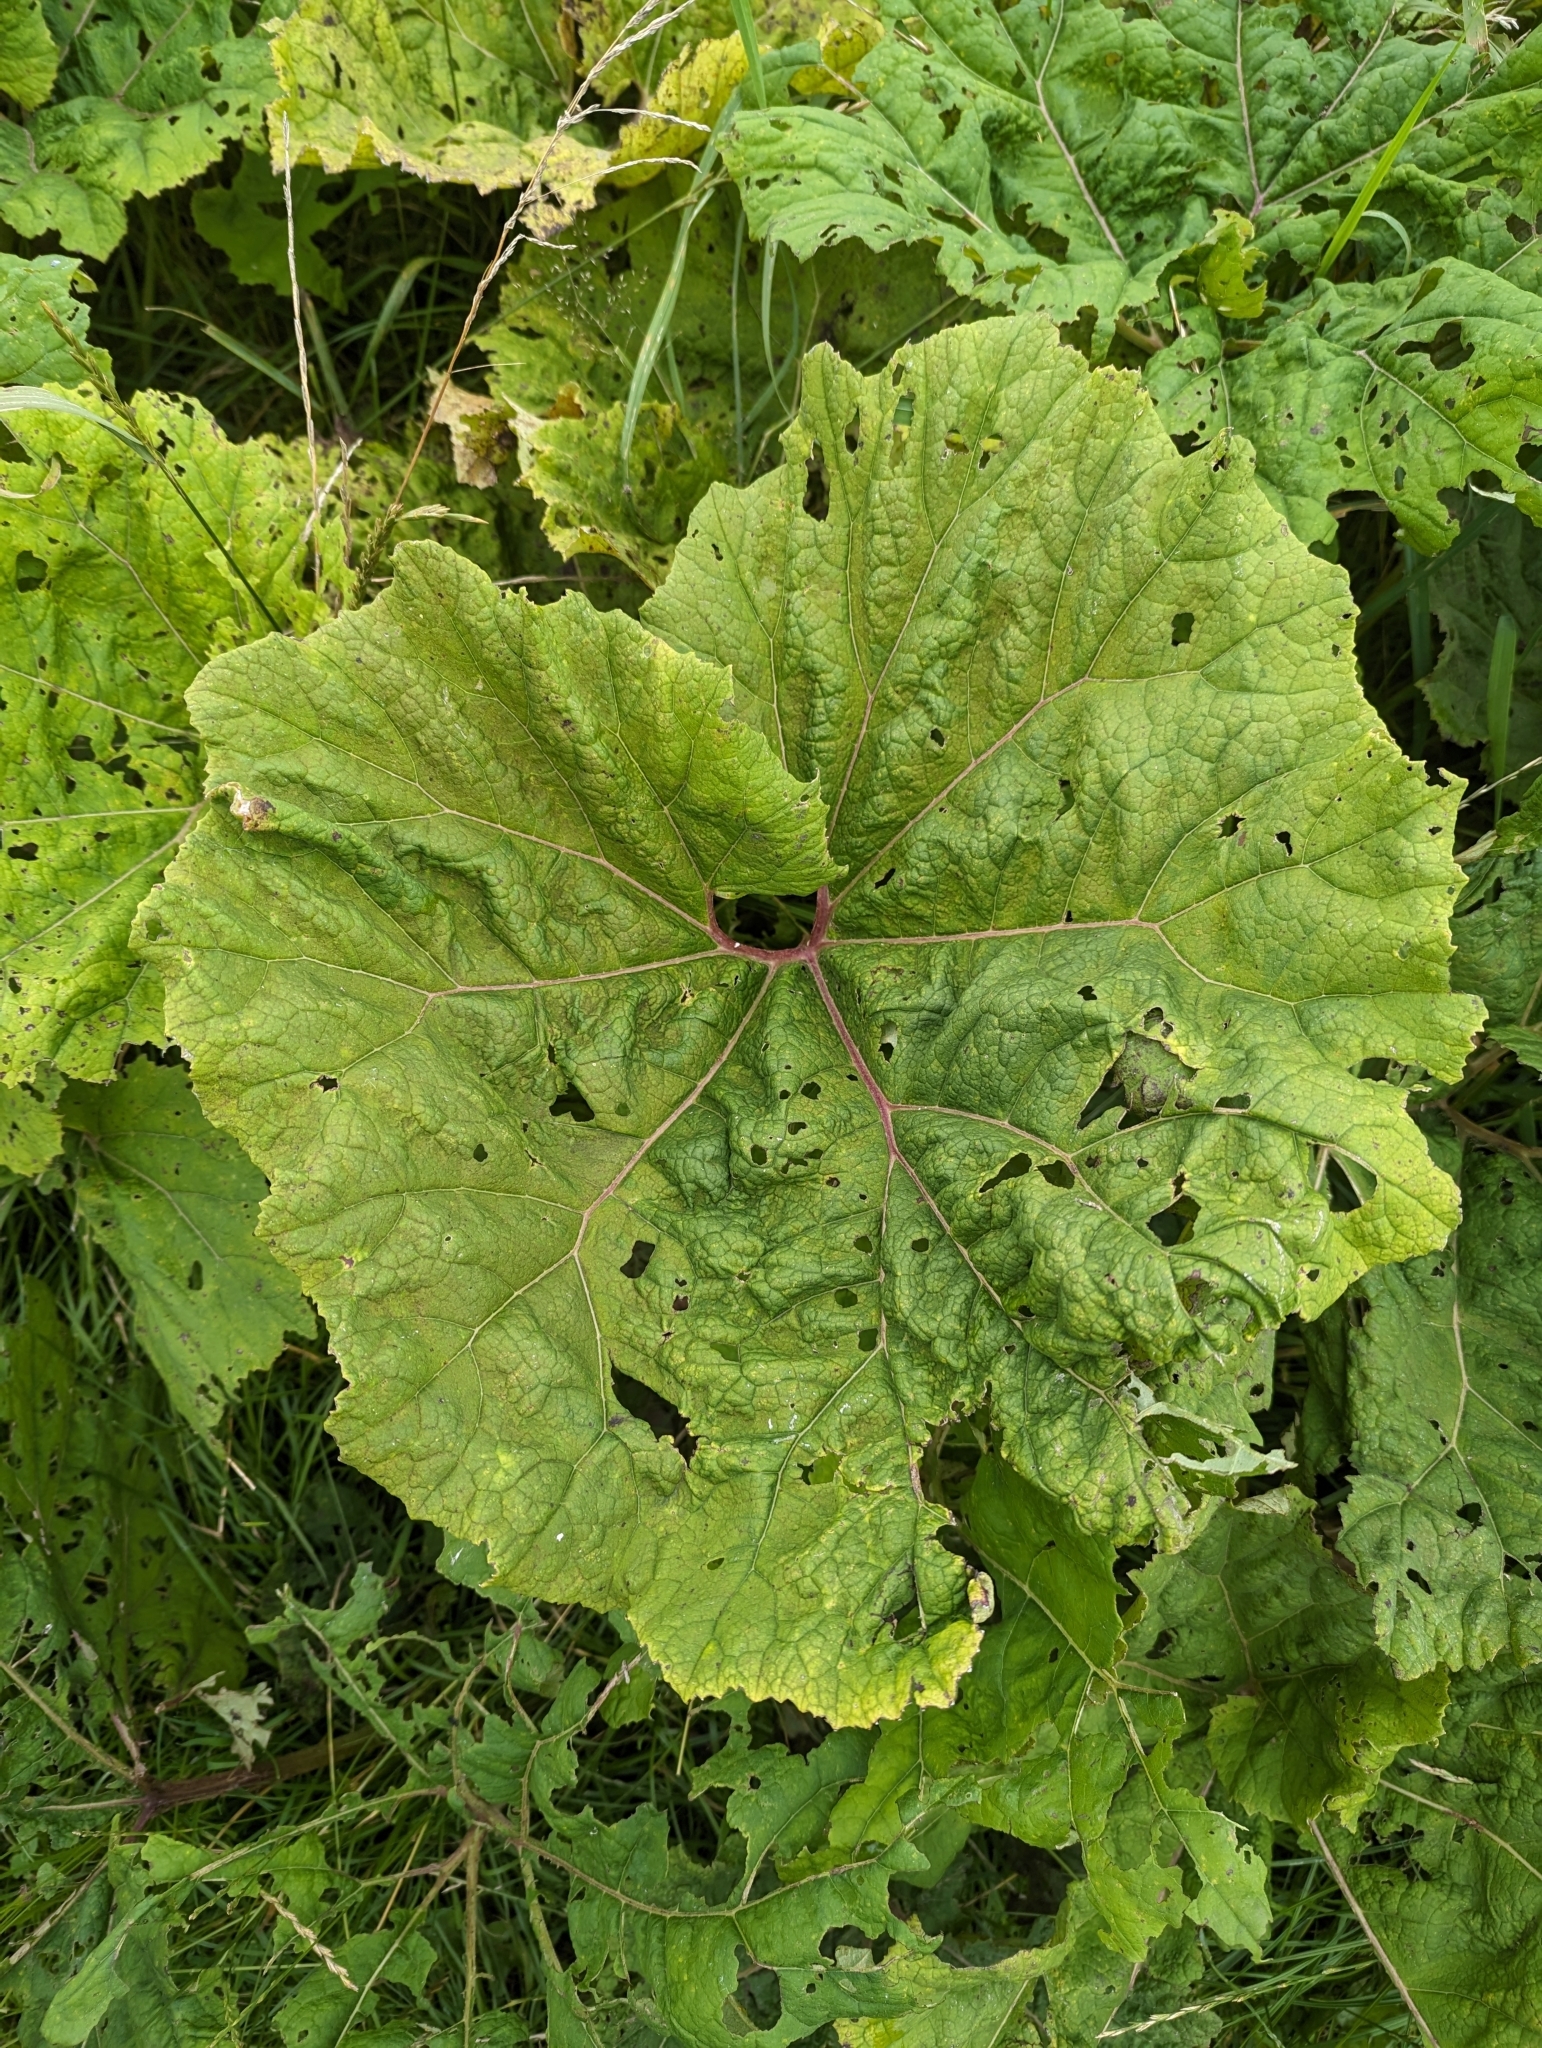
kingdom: Plantae
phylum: Tracheophyta
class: Magnoliopsida
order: Asterales
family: Asteraceae
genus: Petasites
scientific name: Petasites hybridus
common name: Butterbur
